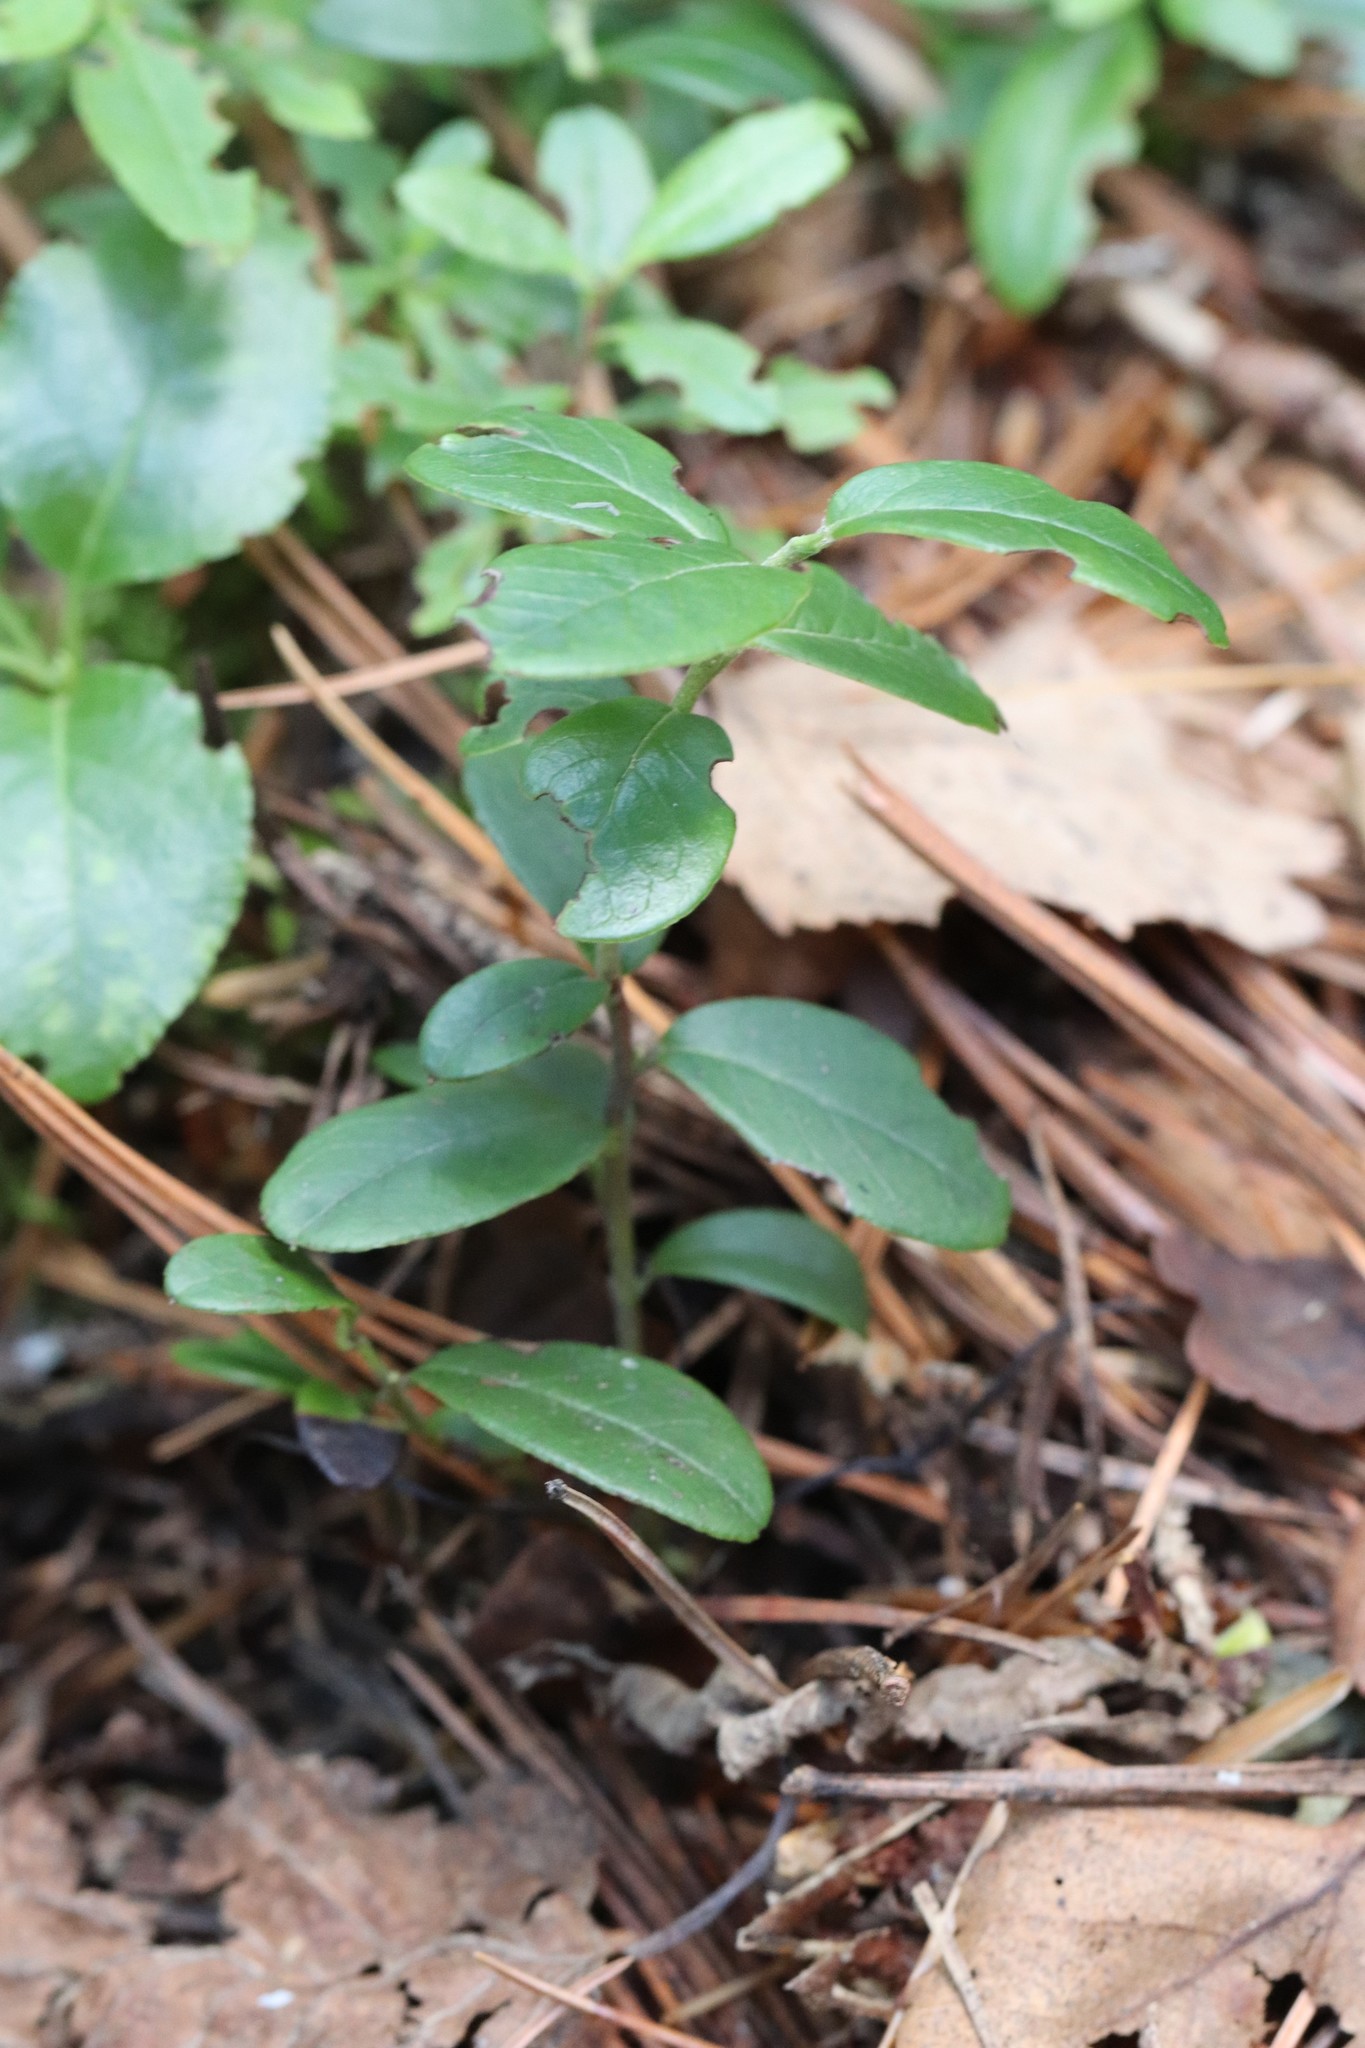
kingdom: Plantae
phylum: Tracheophyta
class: Magnoliopsida
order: Ericales
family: Ericaceae
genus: Vaccinium
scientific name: Vaccinium vitis-idaea
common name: Cowberry
